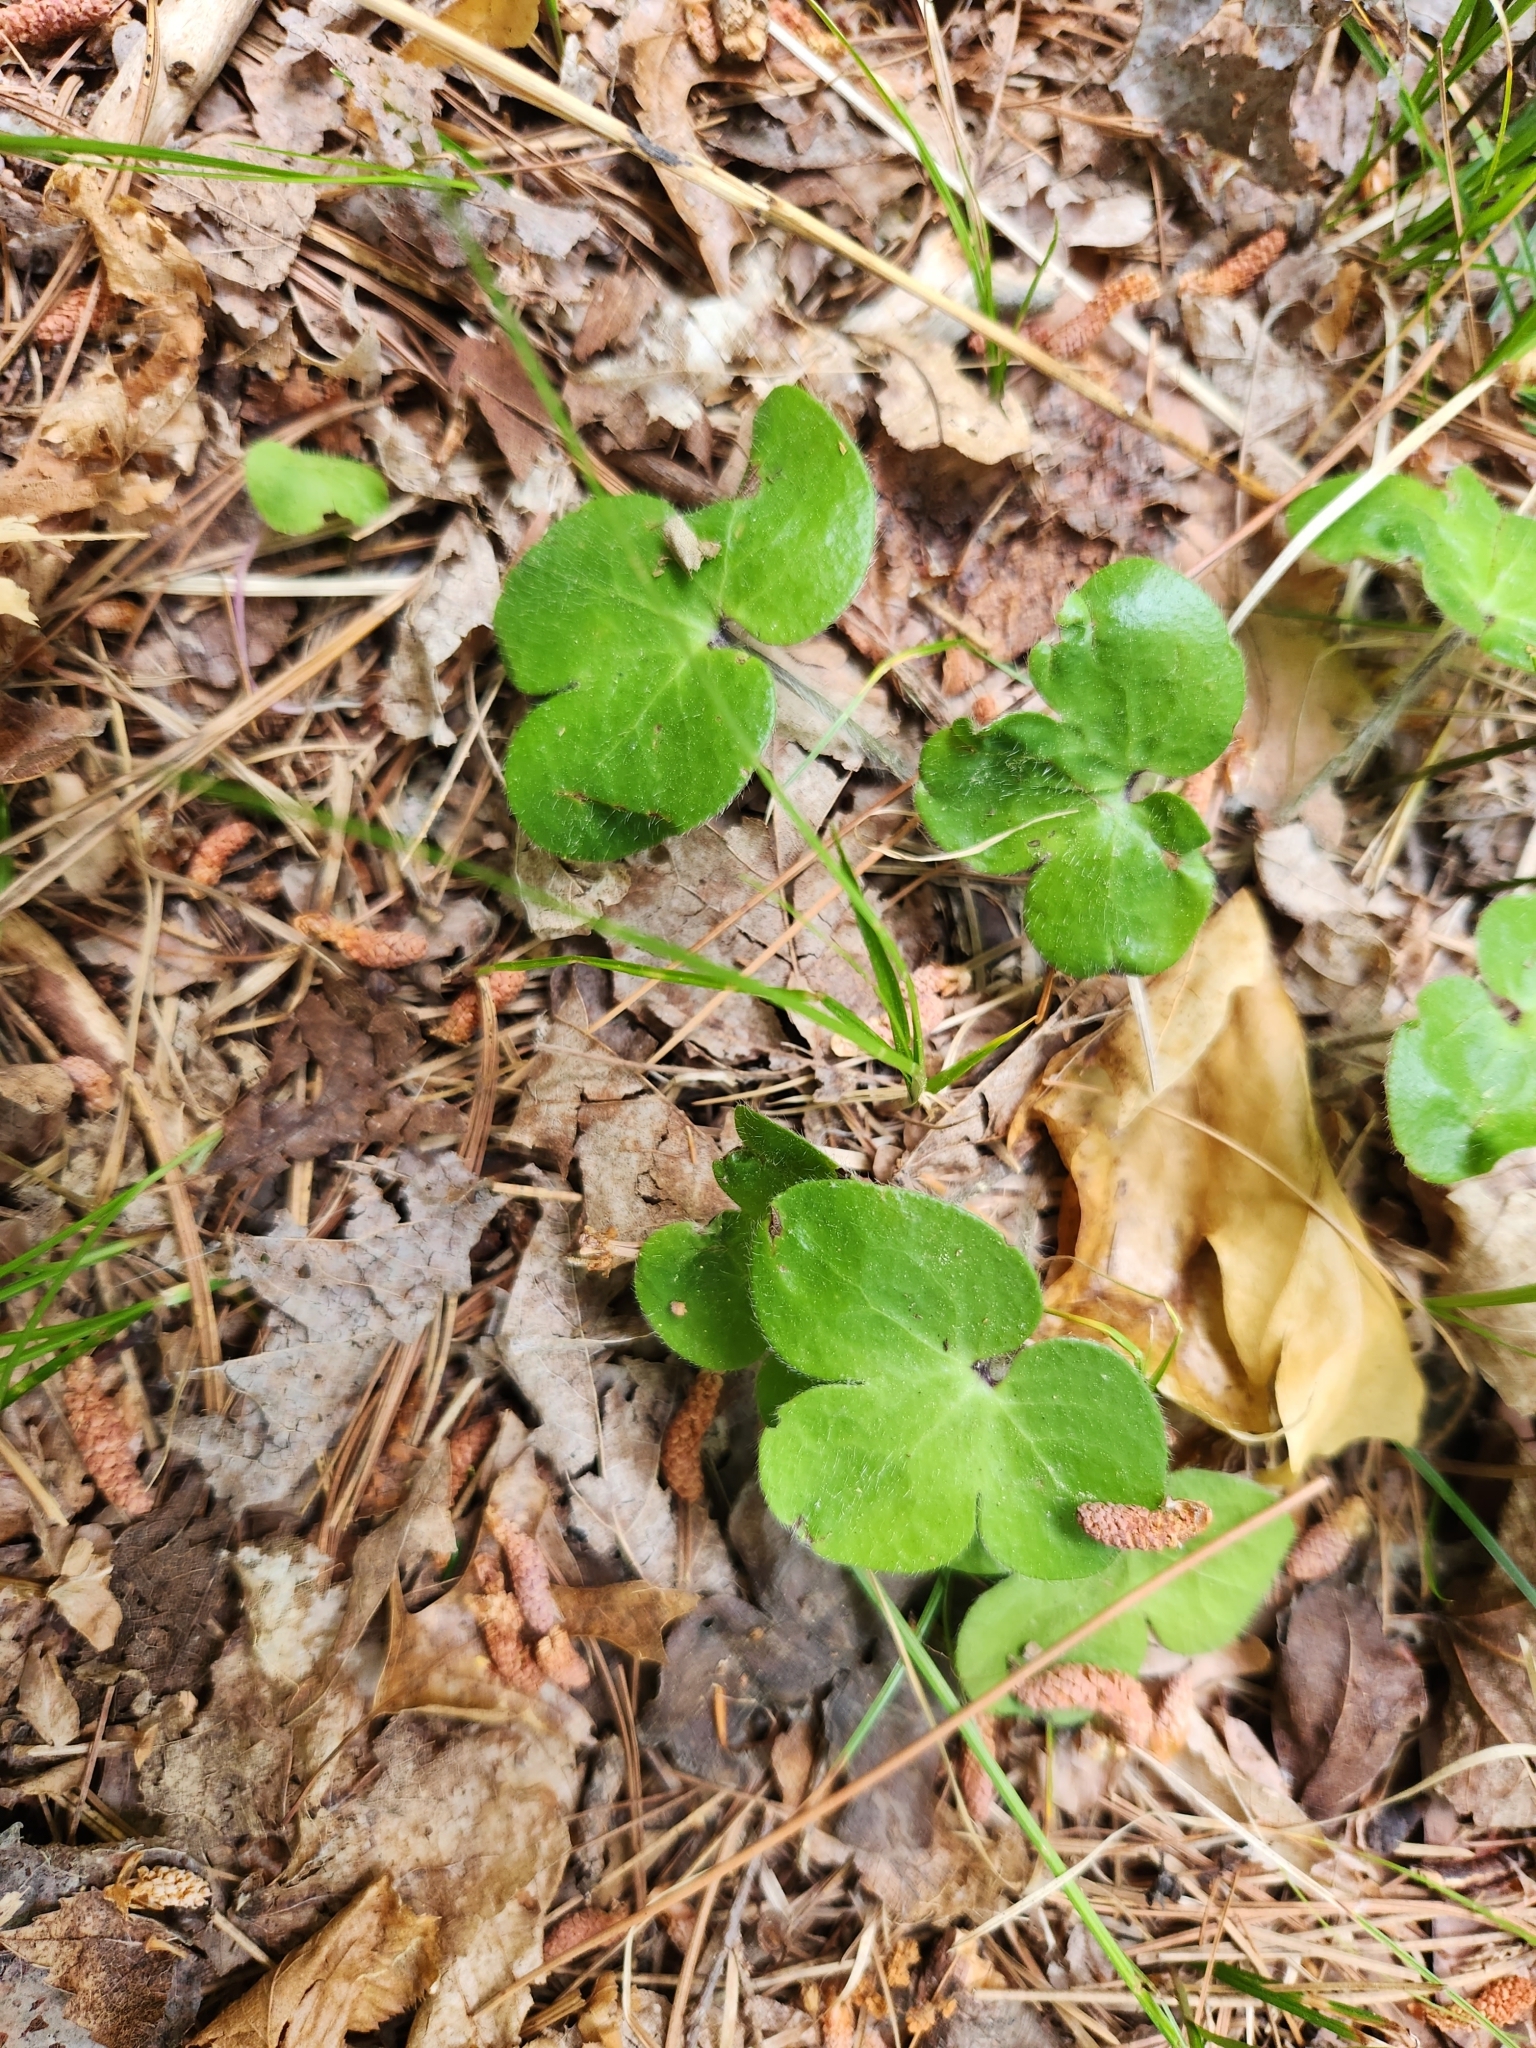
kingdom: Plantae
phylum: Tracheophyta
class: Magnoliopsida
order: Ranunculales
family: Ranunculaceae
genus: Hepatica
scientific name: Hepatica americana
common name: American hepatica
